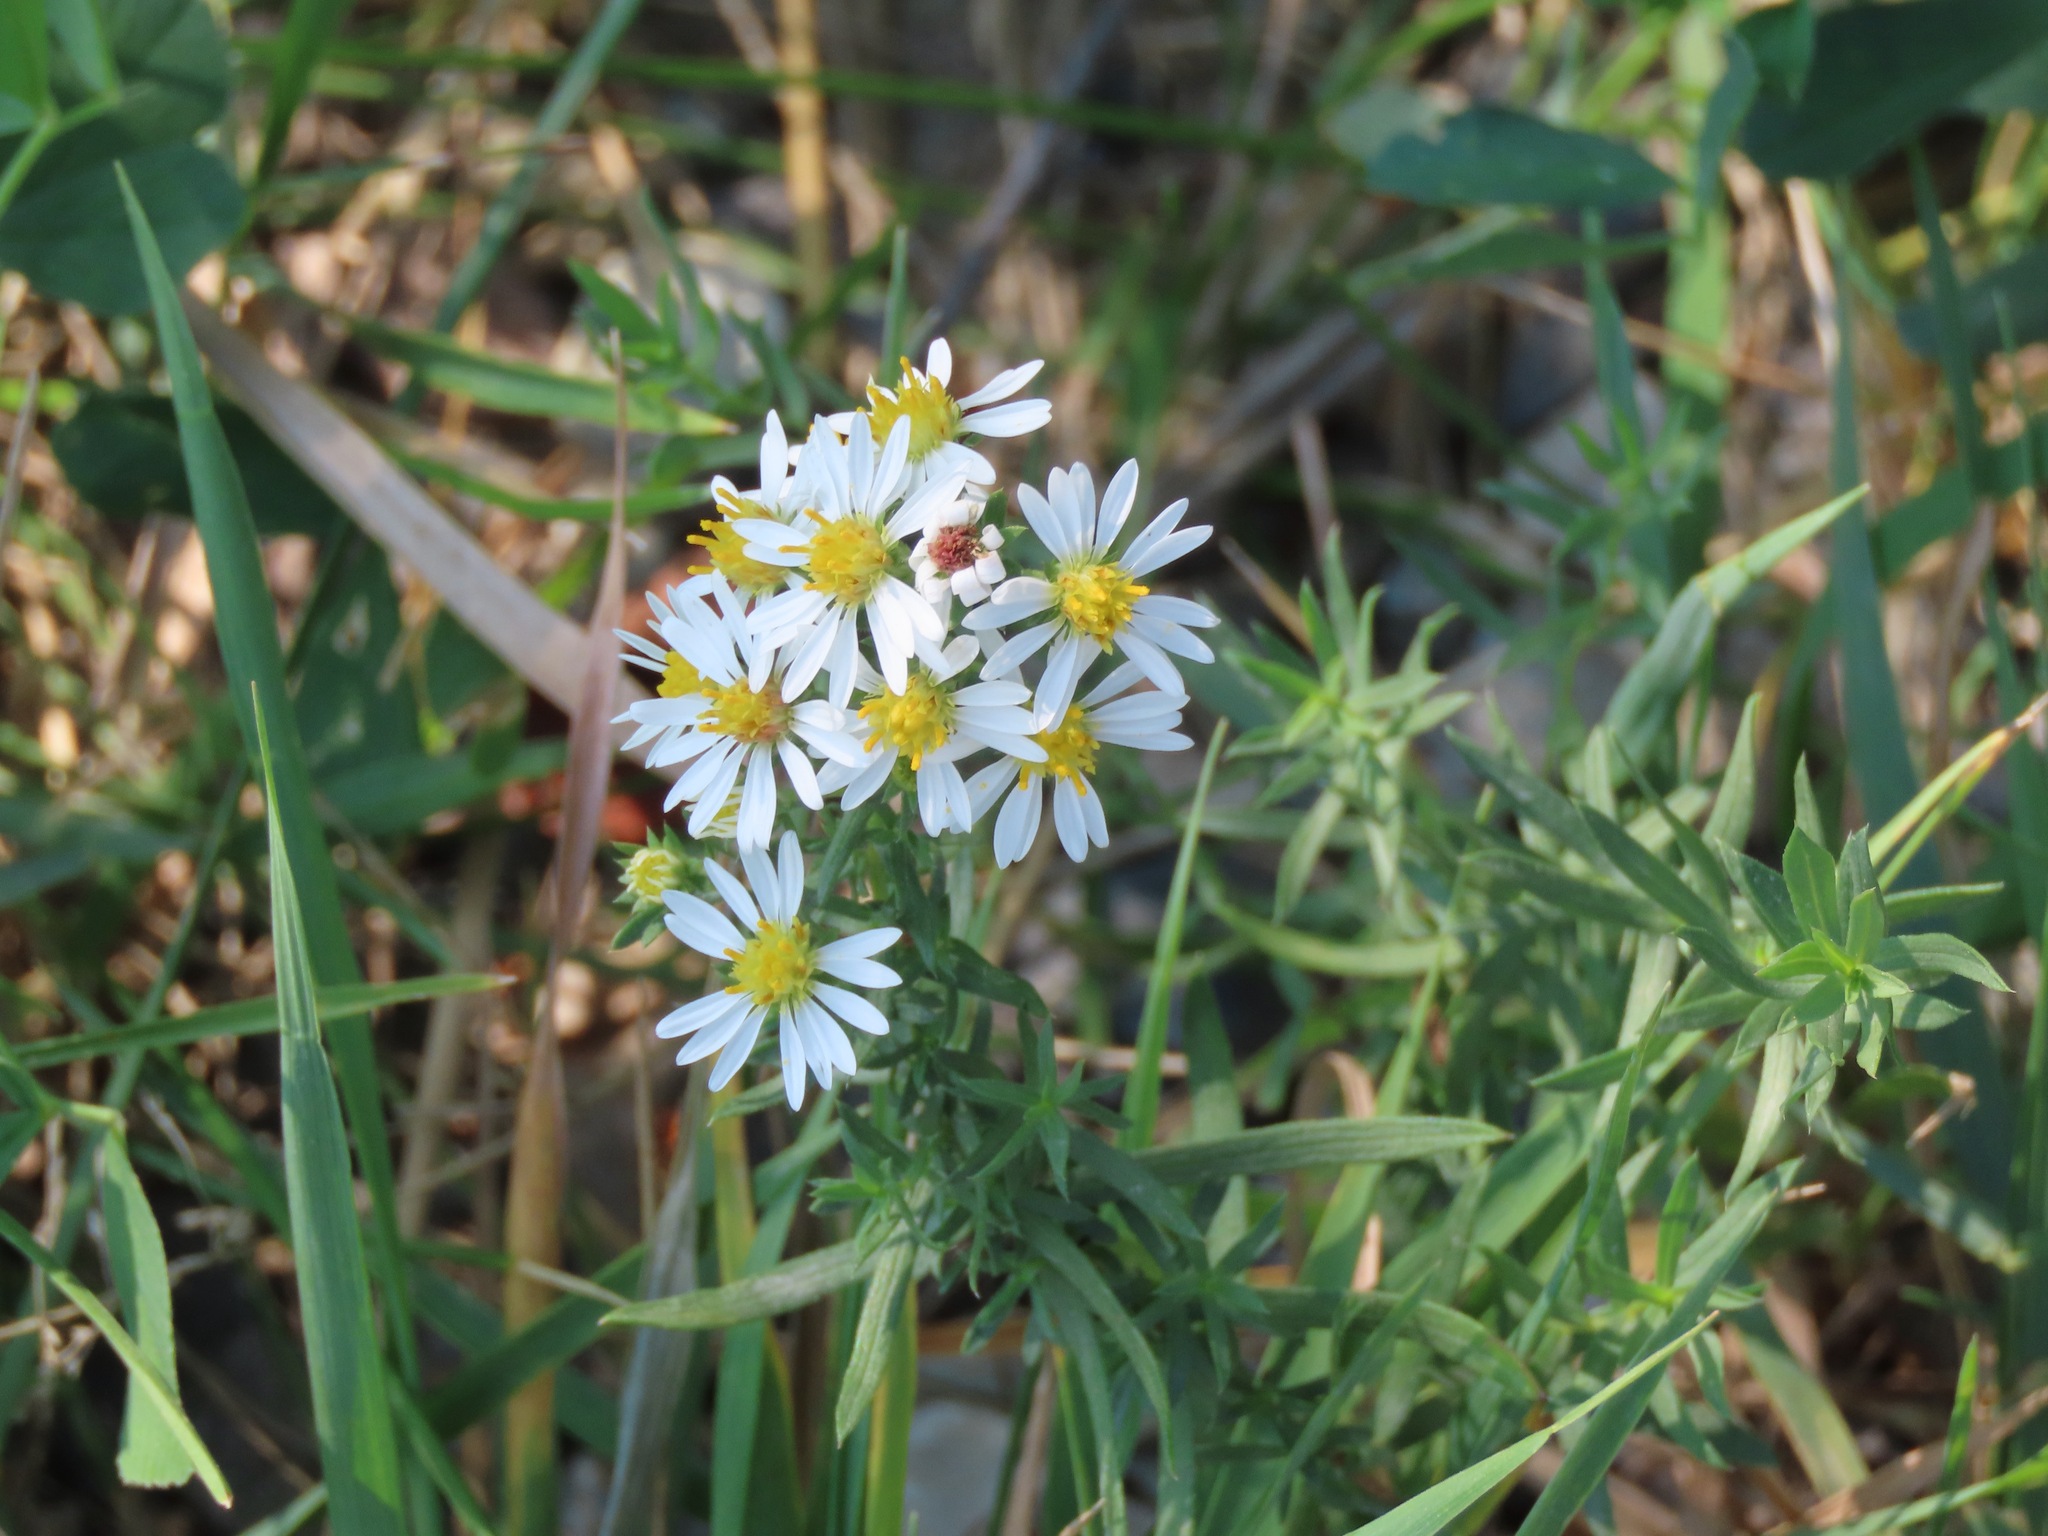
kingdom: Plantae
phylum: Tracheophyta
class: Magnoliopsida
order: Asterales
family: Asteraceae
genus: Symphyotrichum
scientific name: Symphyotrichum ericoides
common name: Heath aster
